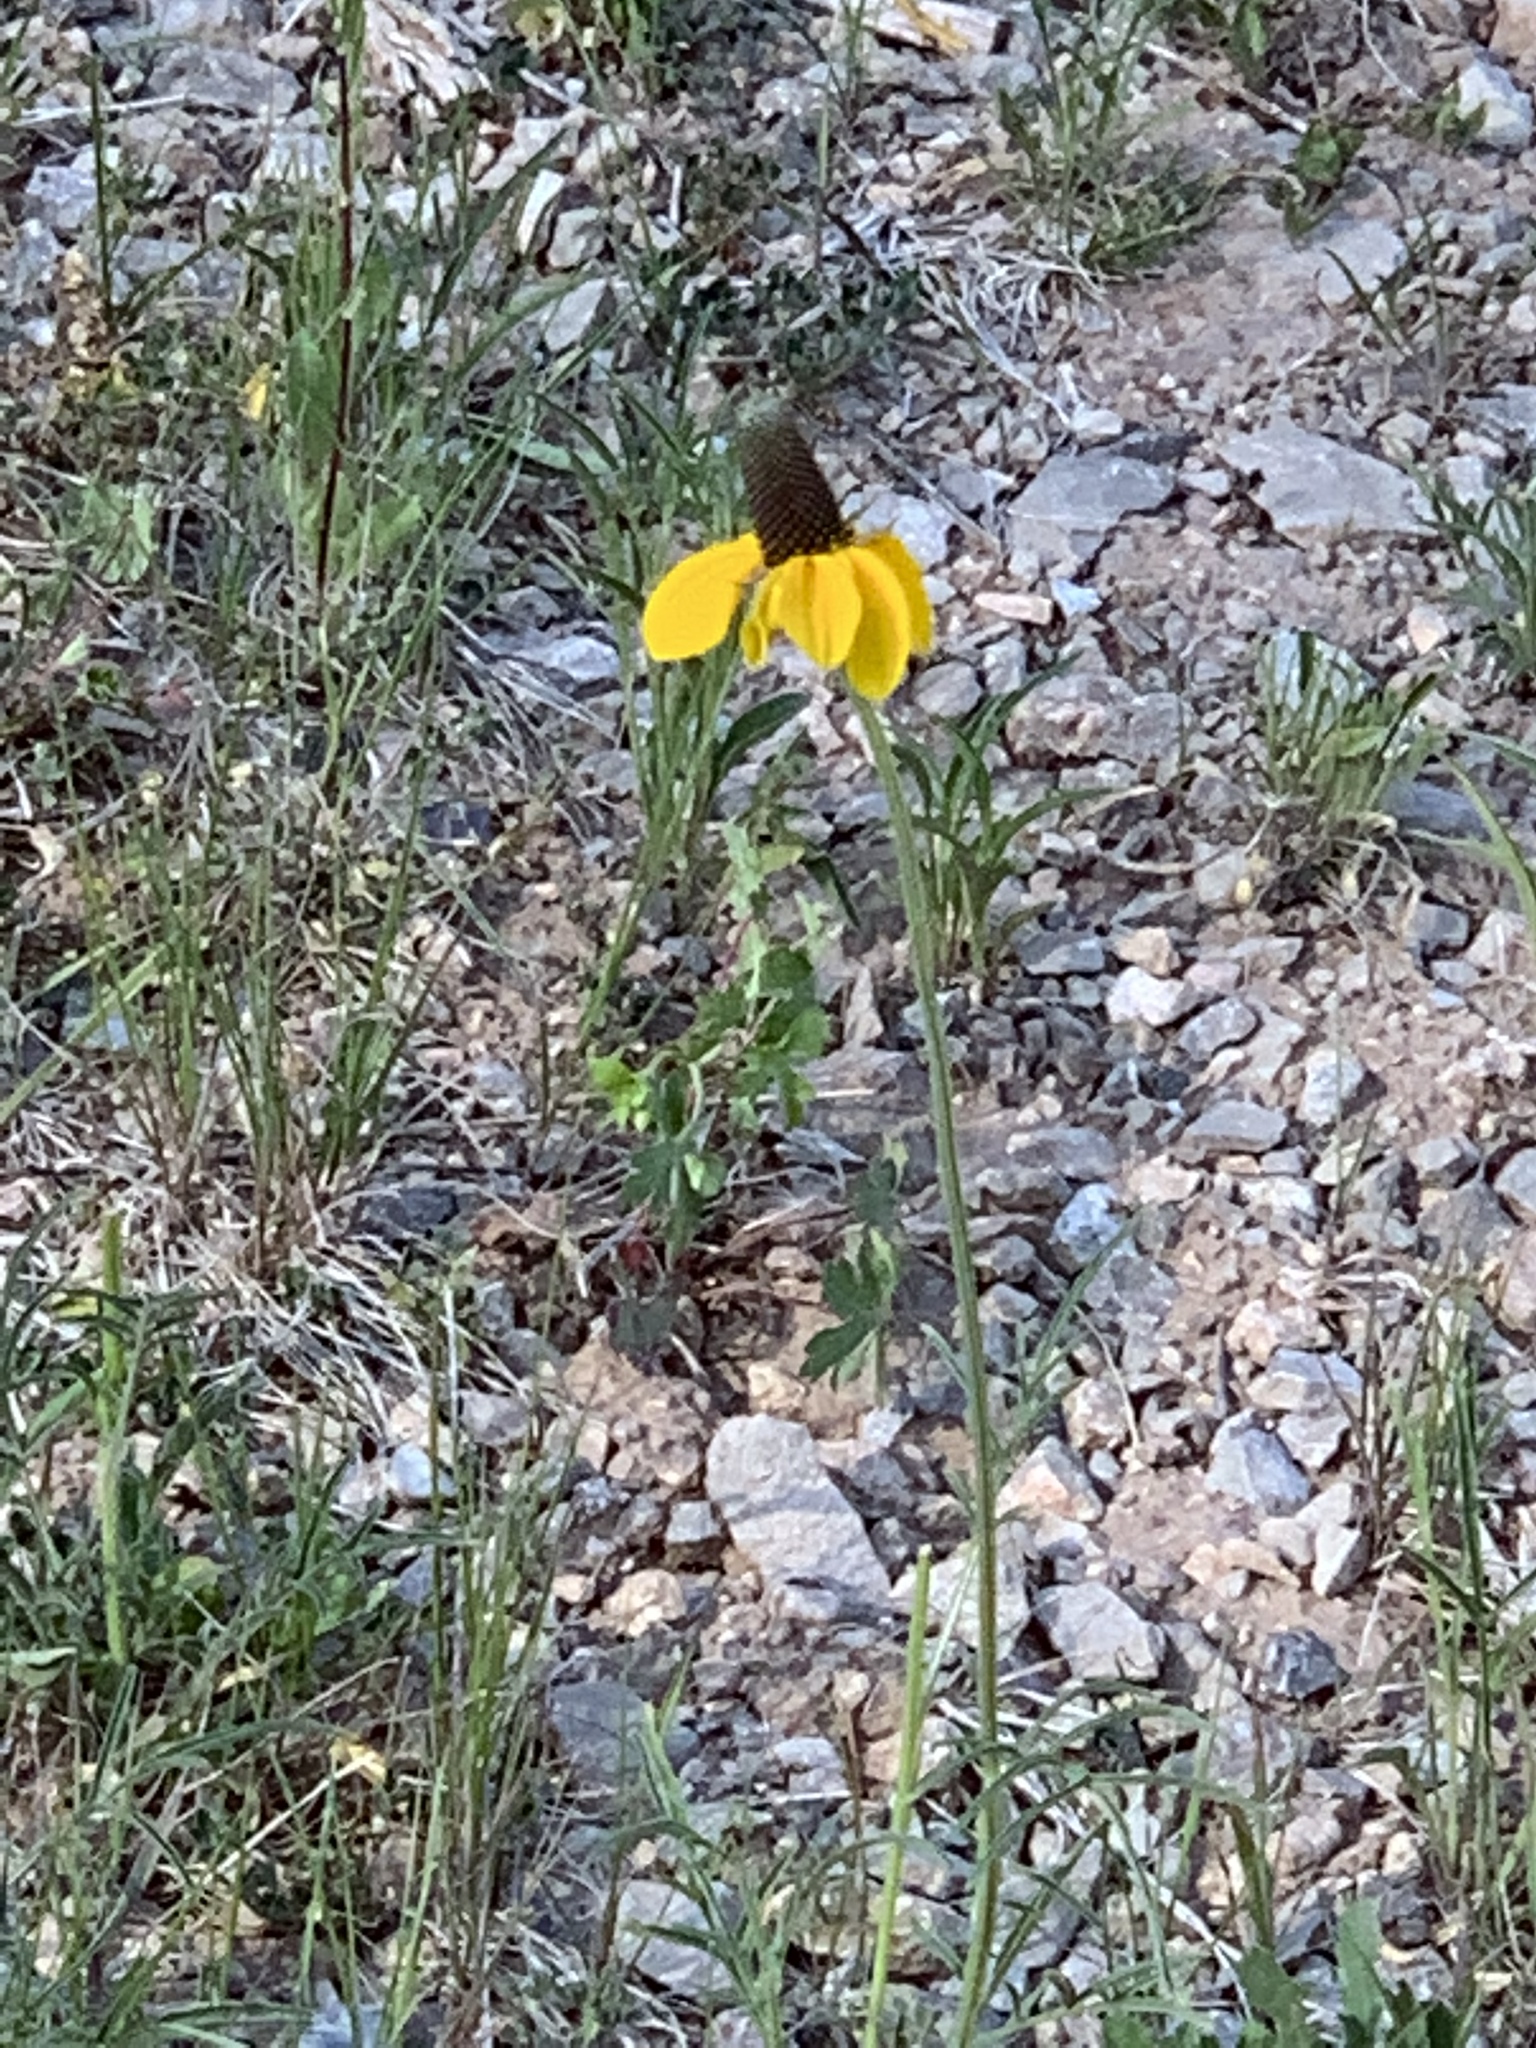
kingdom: Plantae
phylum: Tracheophyta
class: Magnoliopsida
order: Asterales
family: Asteraceae
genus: Ratibida
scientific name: Ratibida columnifera
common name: Prairie coneflower
